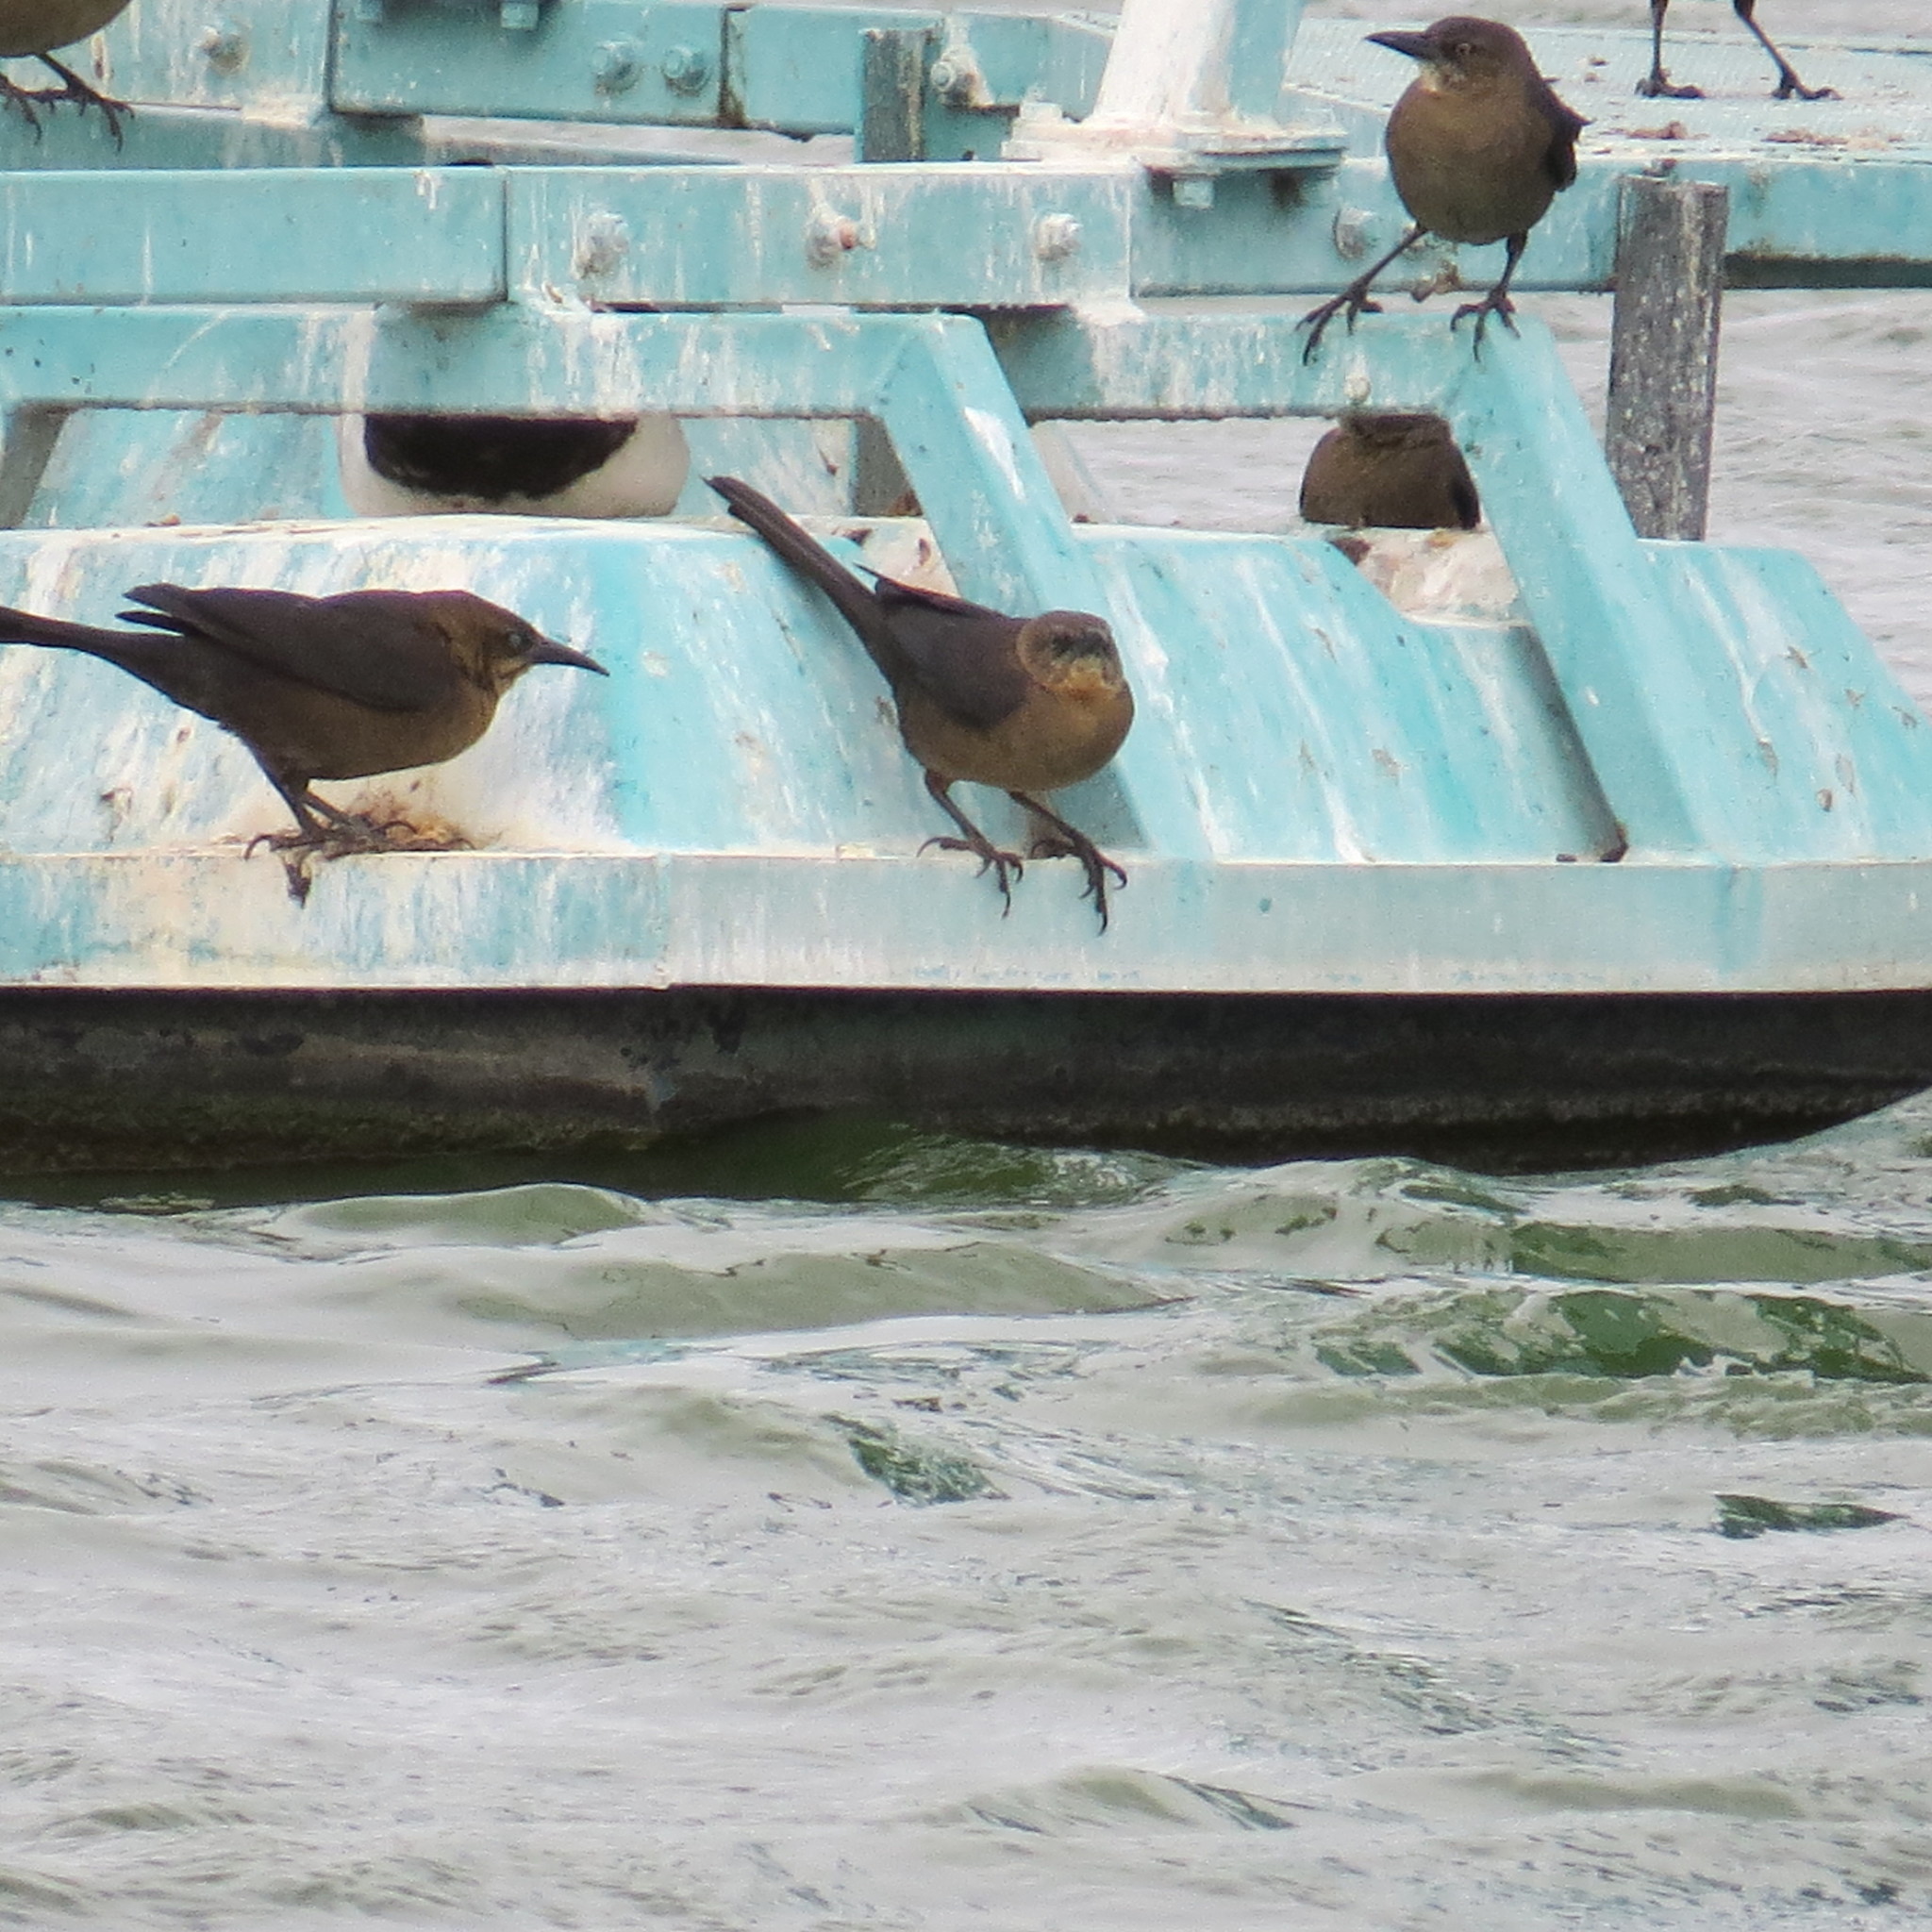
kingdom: Animalia
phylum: Chordata
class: Aves
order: Passeriformes
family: Icteridae
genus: Quiscalus
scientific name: Quiscalus mexicanus
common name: Great-tailed grackle
